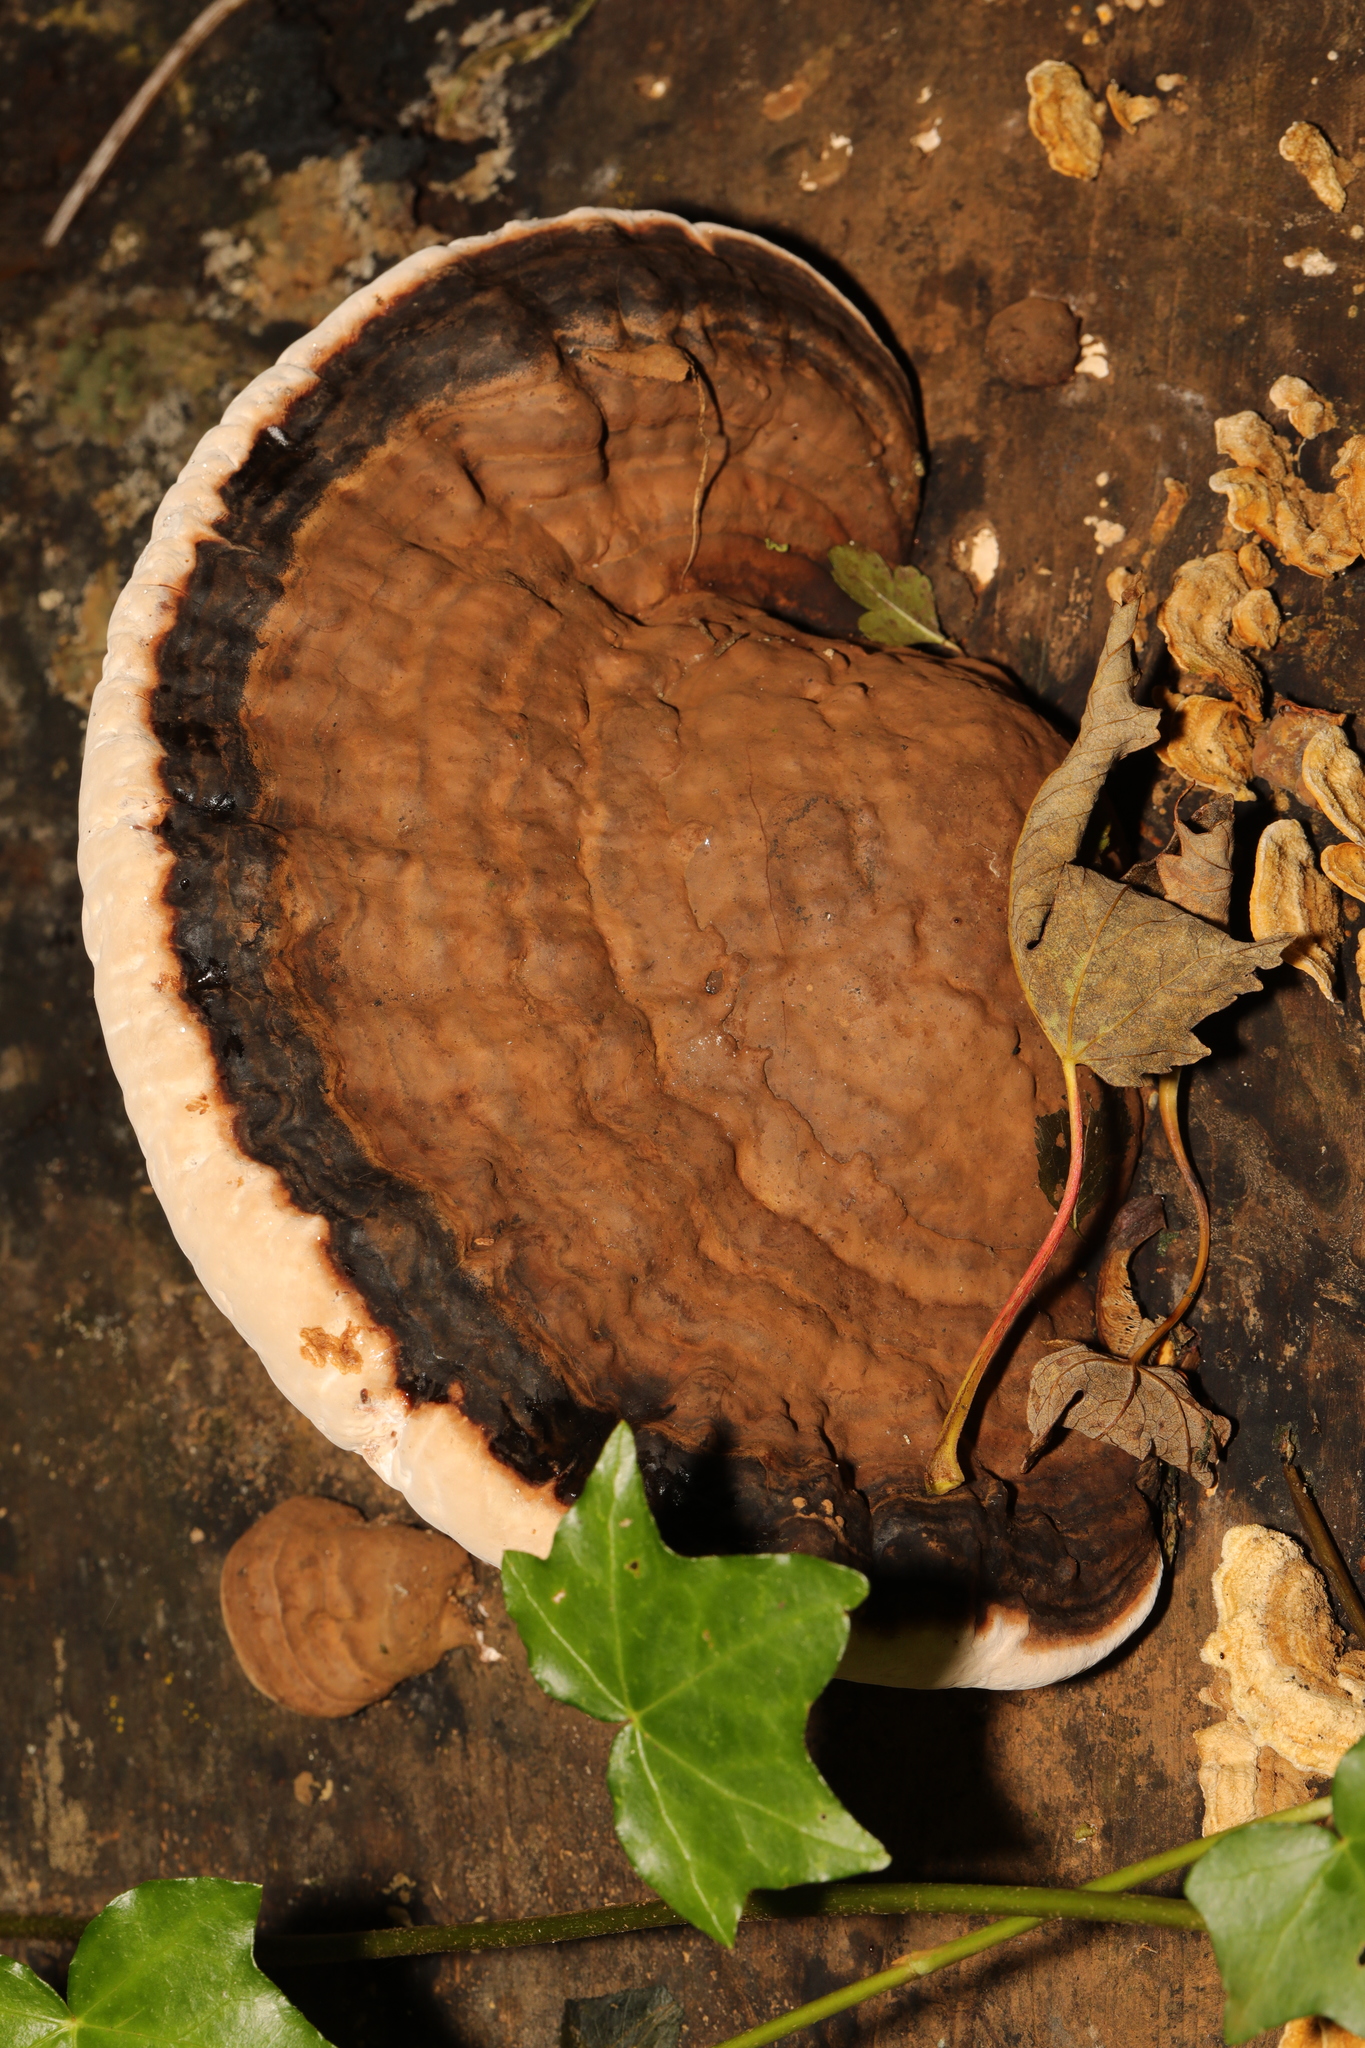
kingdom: Fungi
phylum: Basidiomycota
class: Agaricomycetes
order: Polyporales
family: Polyporaceae
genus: Ganoderma
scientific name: Ganoderma applanatum
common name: Artist's bracket
